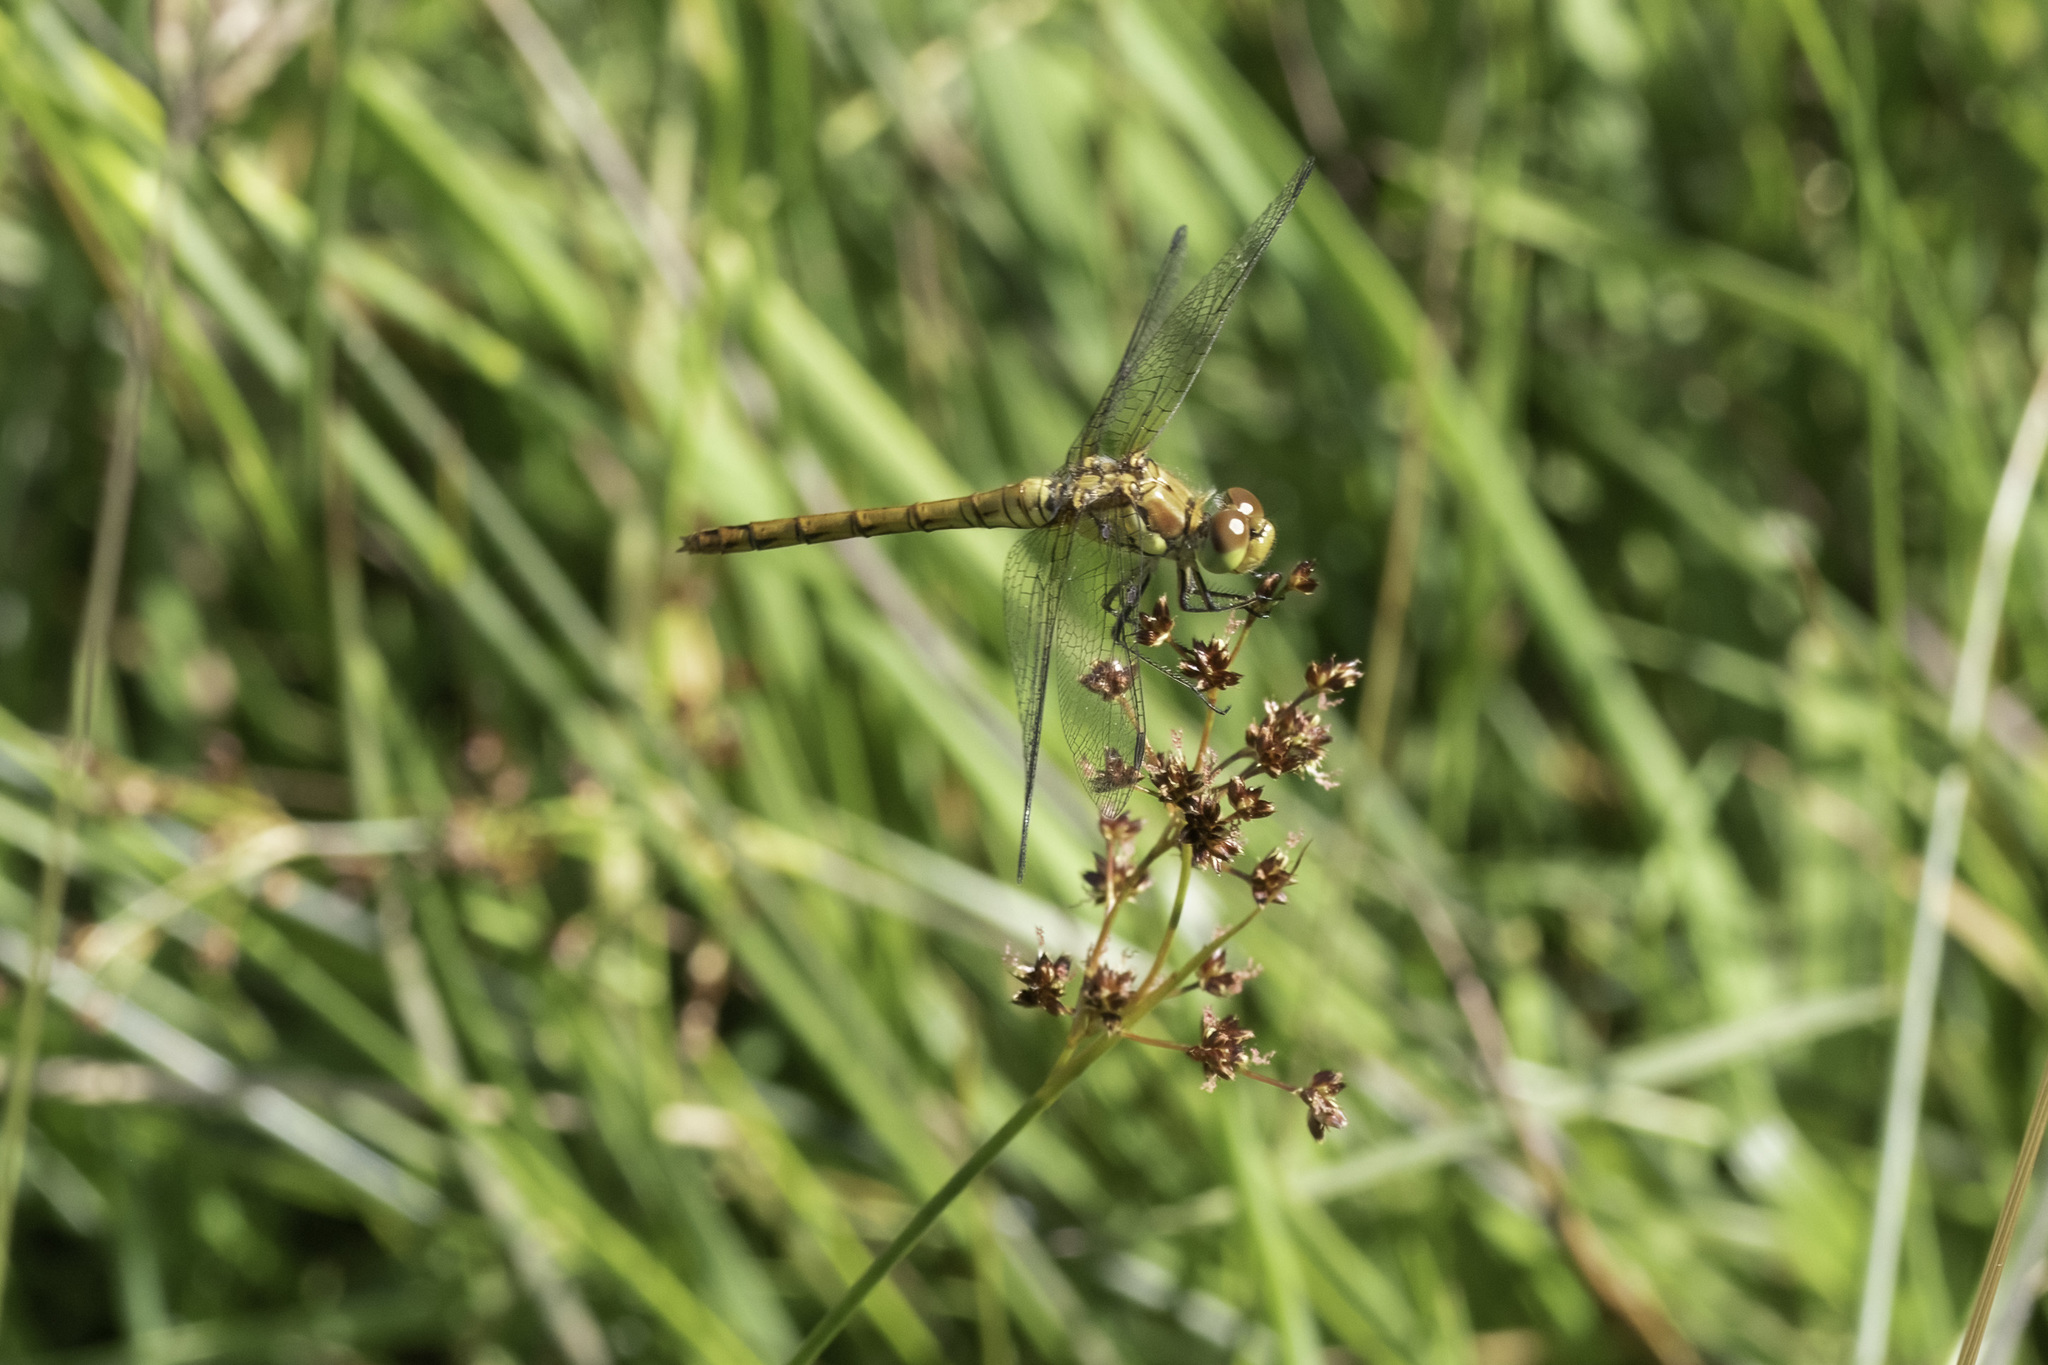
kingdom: Animalia
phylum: Arthropoda
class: Insecta
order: Odonata
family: Libellulidae
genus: Sympetrum
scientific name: Sympetrum striolatum
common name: Common darter
